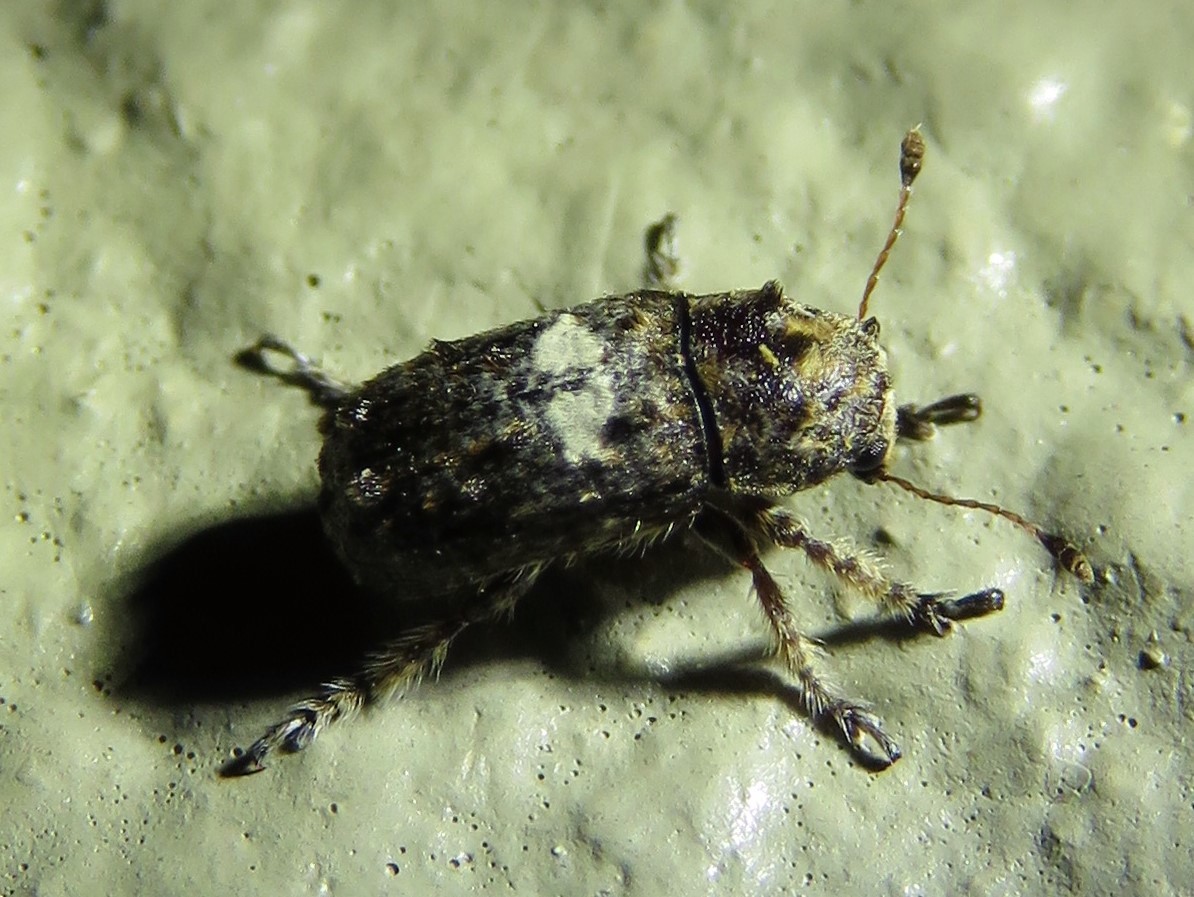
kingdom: Animalia
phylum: Arthropoda
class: Insecta
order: Coleoptera
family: Anthribidae
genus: Toxonotus
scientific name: Toxonotus cornutus
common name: Fungus weevil
